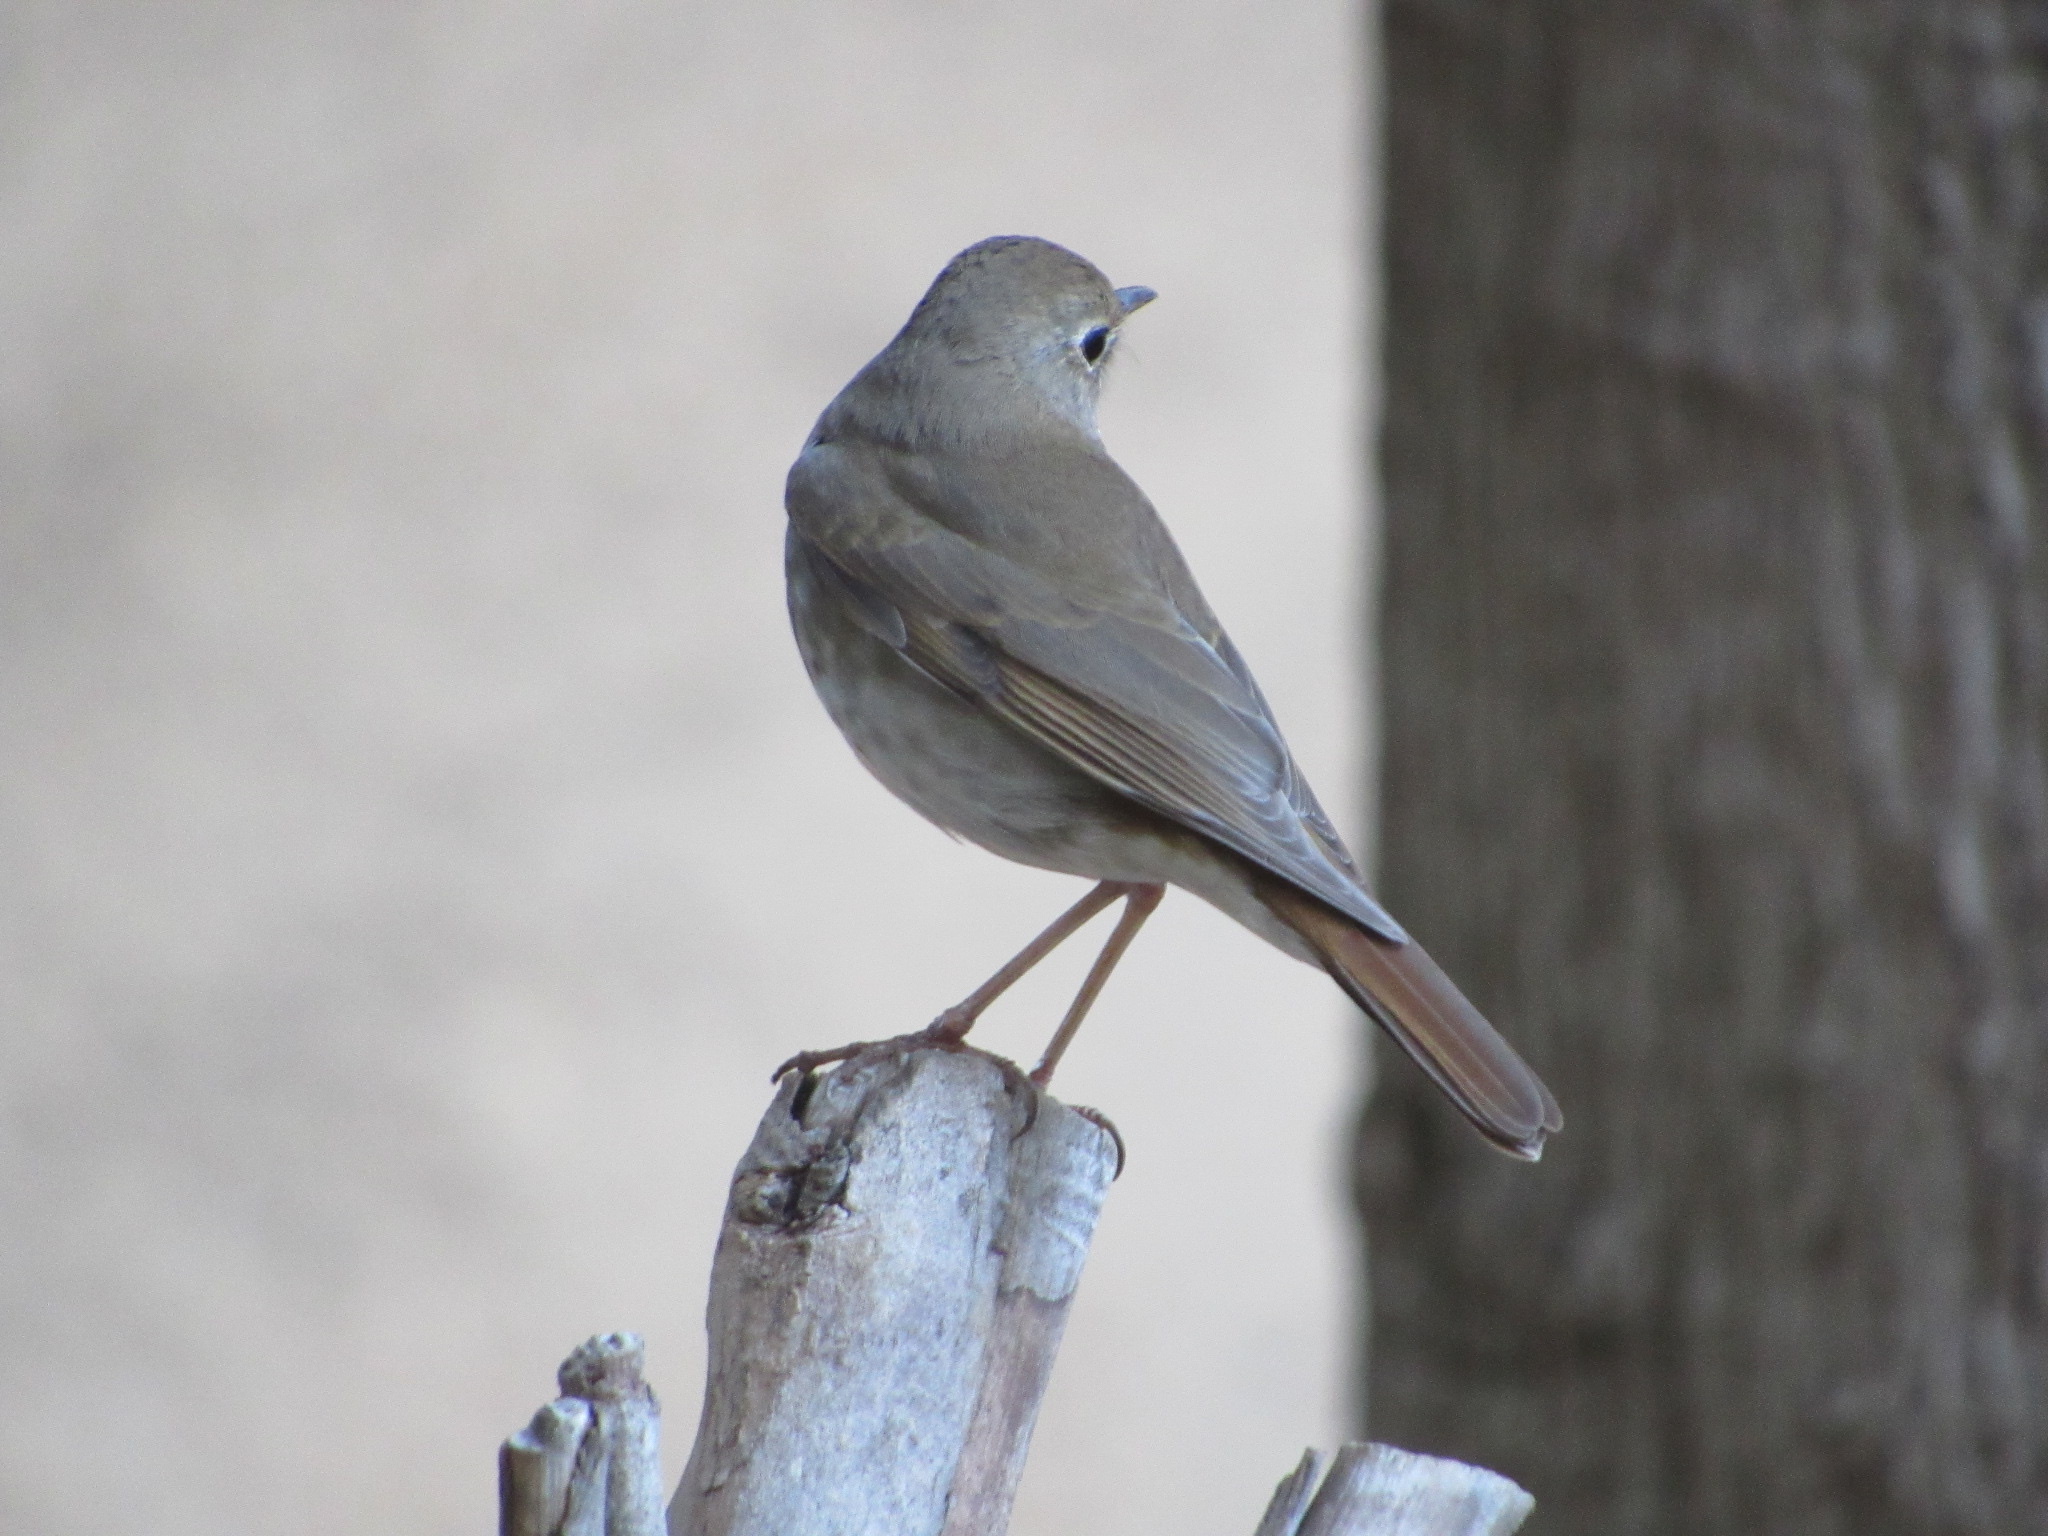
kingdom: Animalia
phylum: Chordata
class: Aves
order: Passeriformes
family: Turdidae
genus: Catharus
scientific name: Catharus guttatus
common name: Hermit thrush
